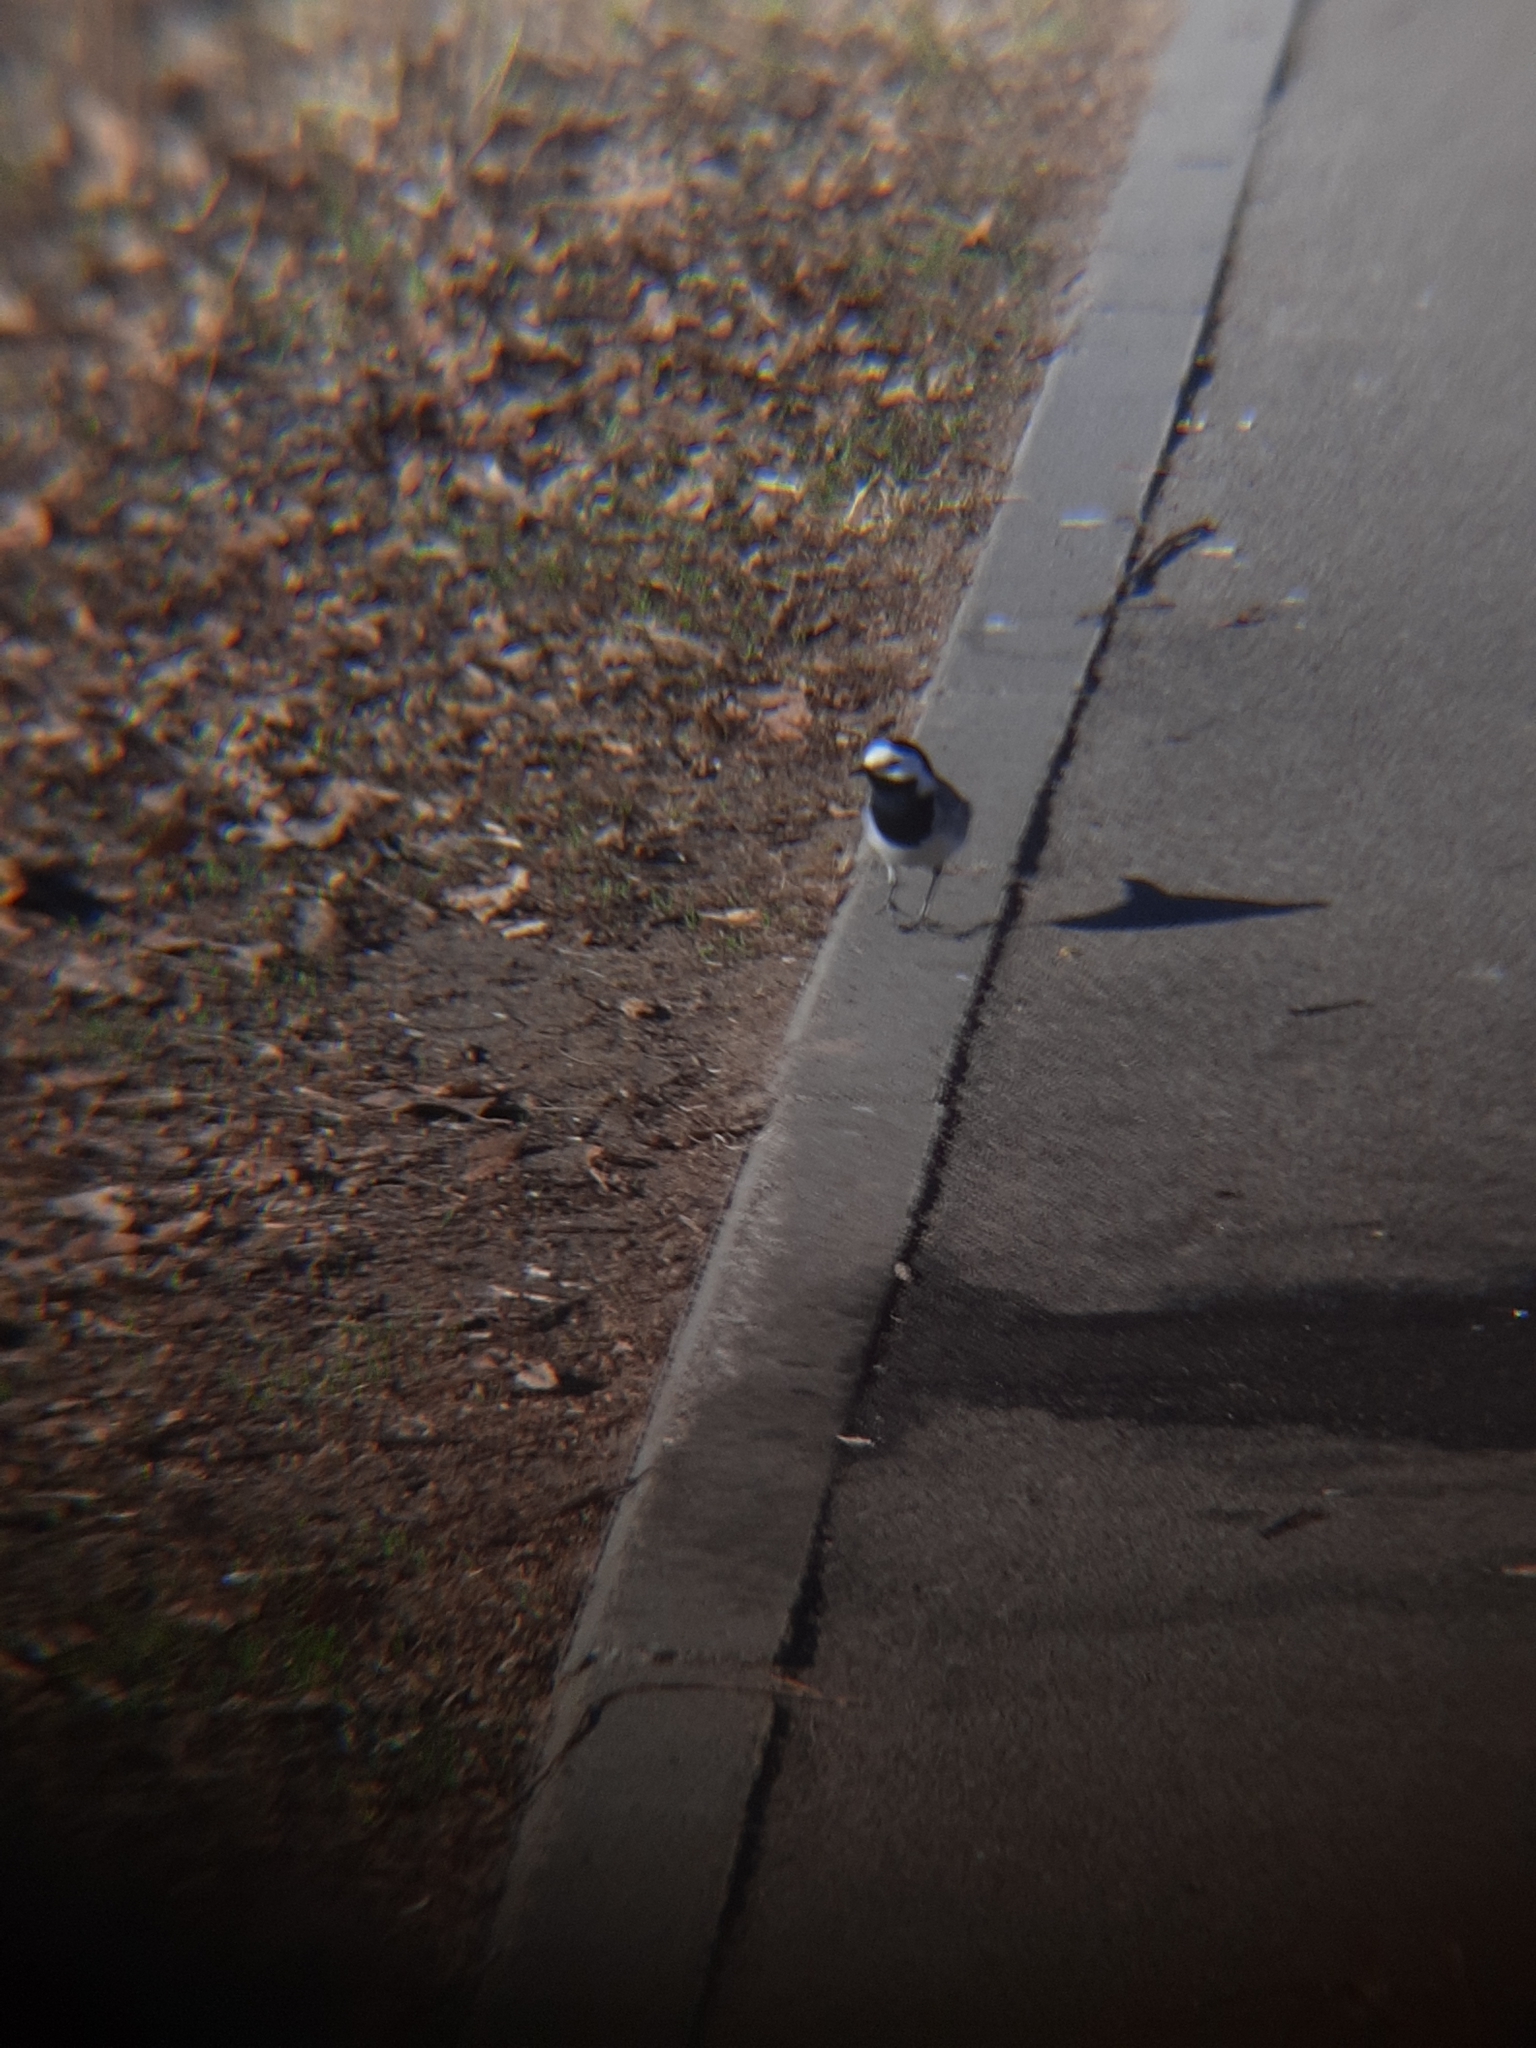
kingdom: Animalia
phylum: Chordata
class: Aves
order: Passeriformes
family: Motacillidae
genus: Motacilla
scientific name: Motacilla alba
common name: White wagtail
